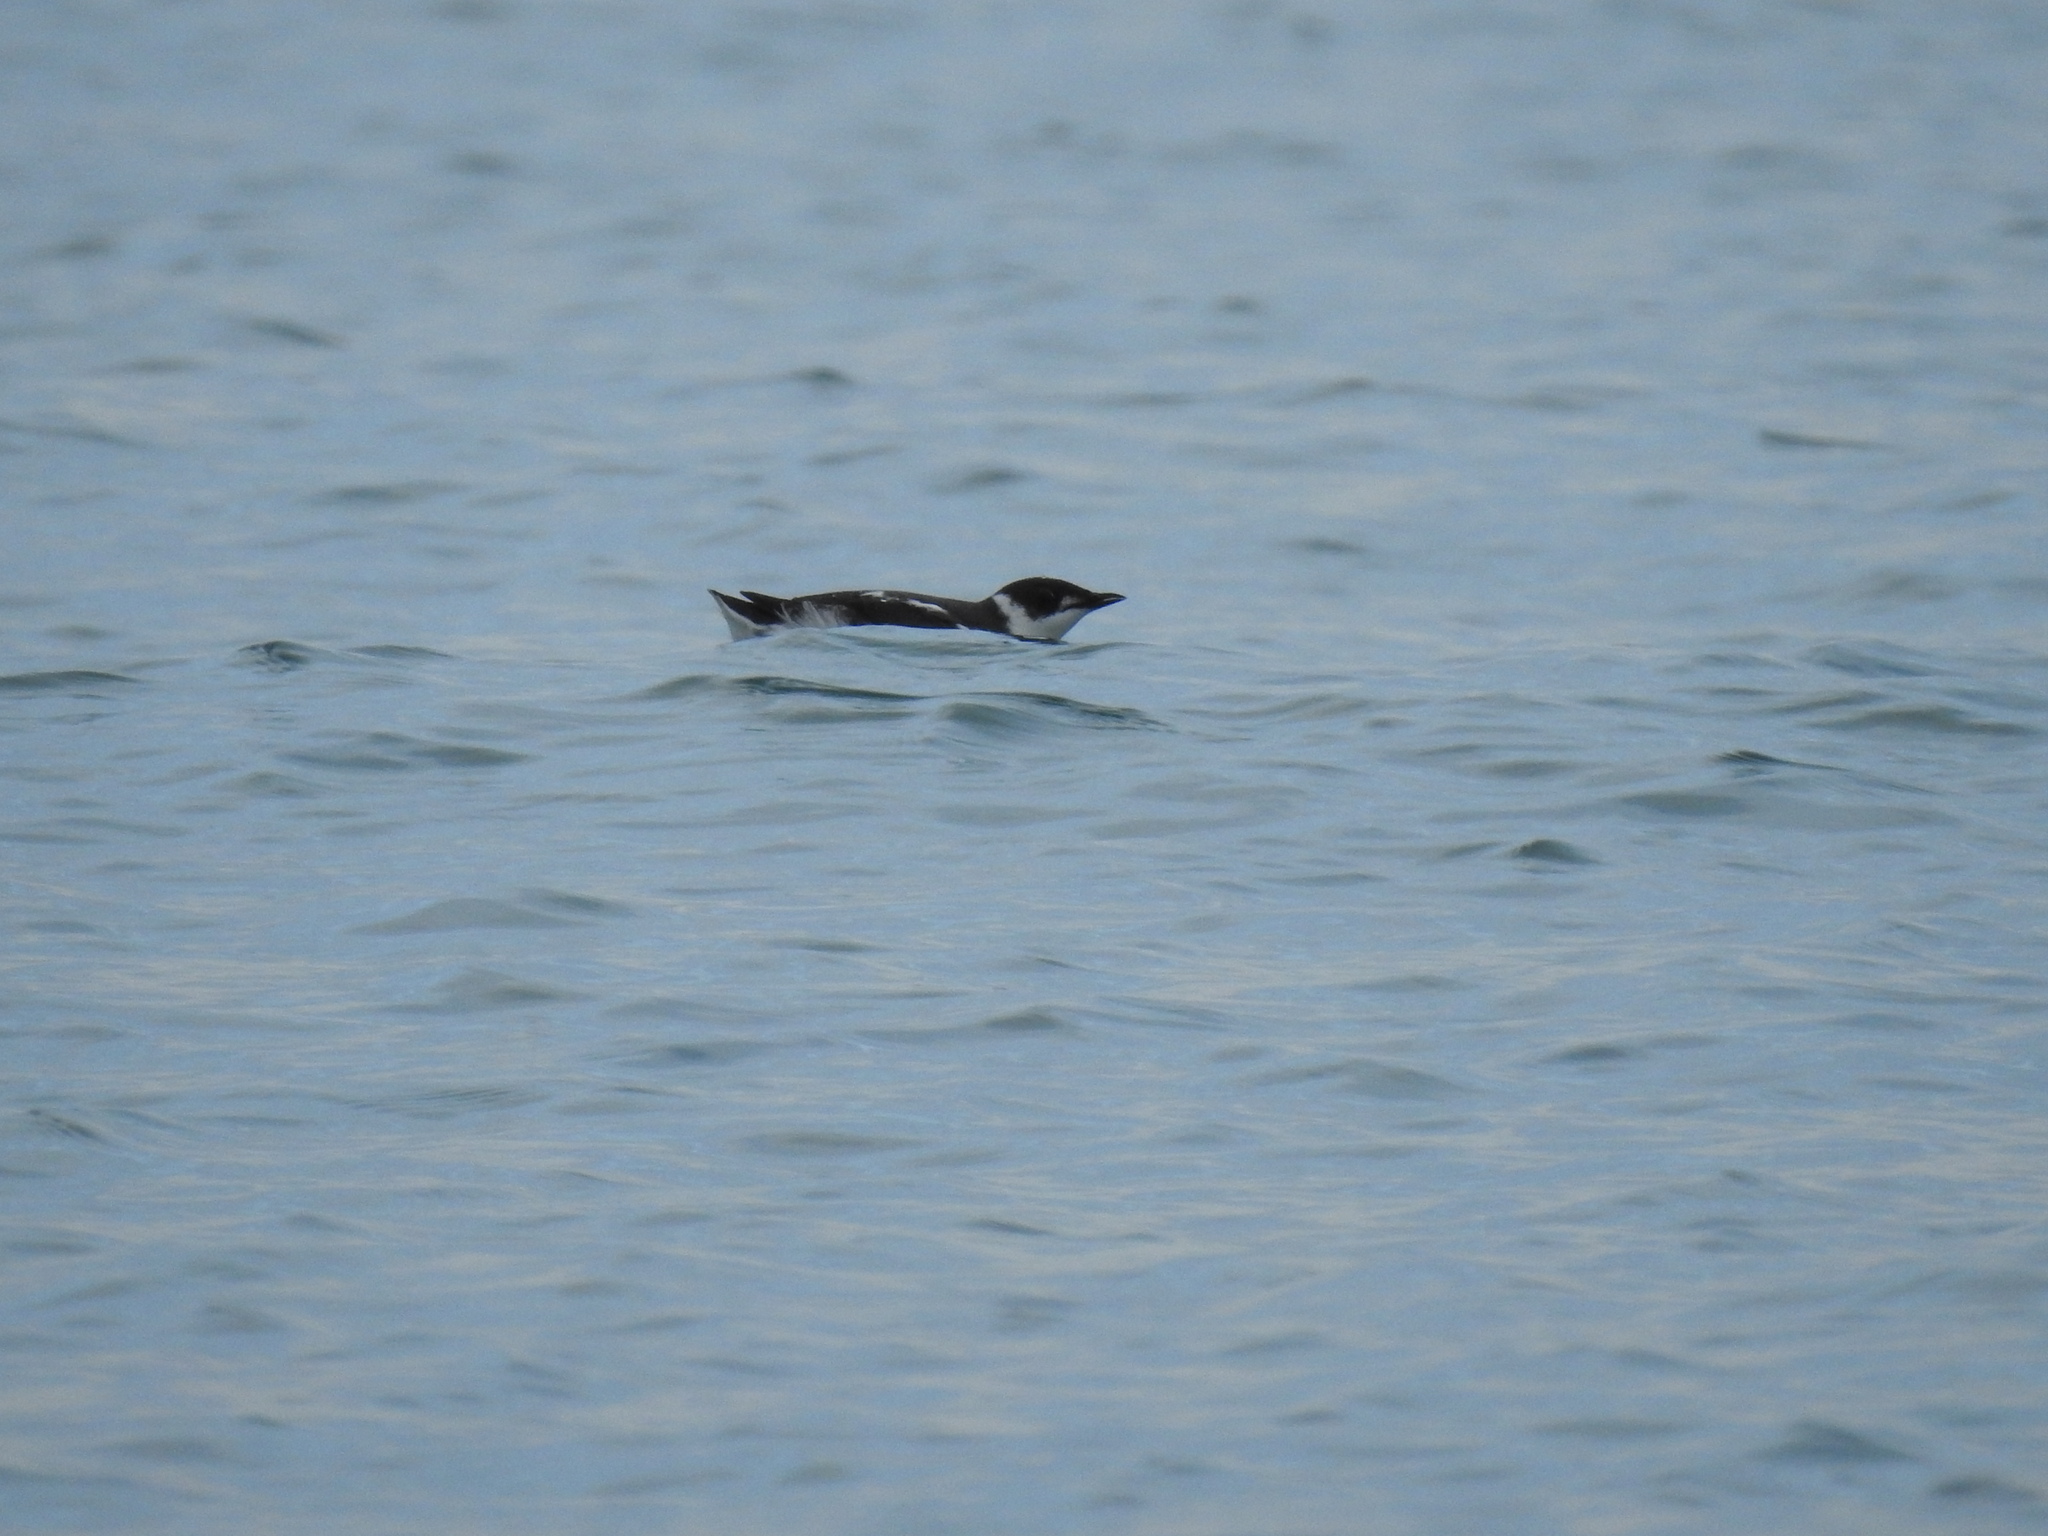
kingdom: Animalia
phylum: Chordata
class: Aves
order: Charadriiformes
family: Alcidae
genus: Brachyramphus
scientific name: Brachyramphus marmoratus
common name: Marbled murrelet
